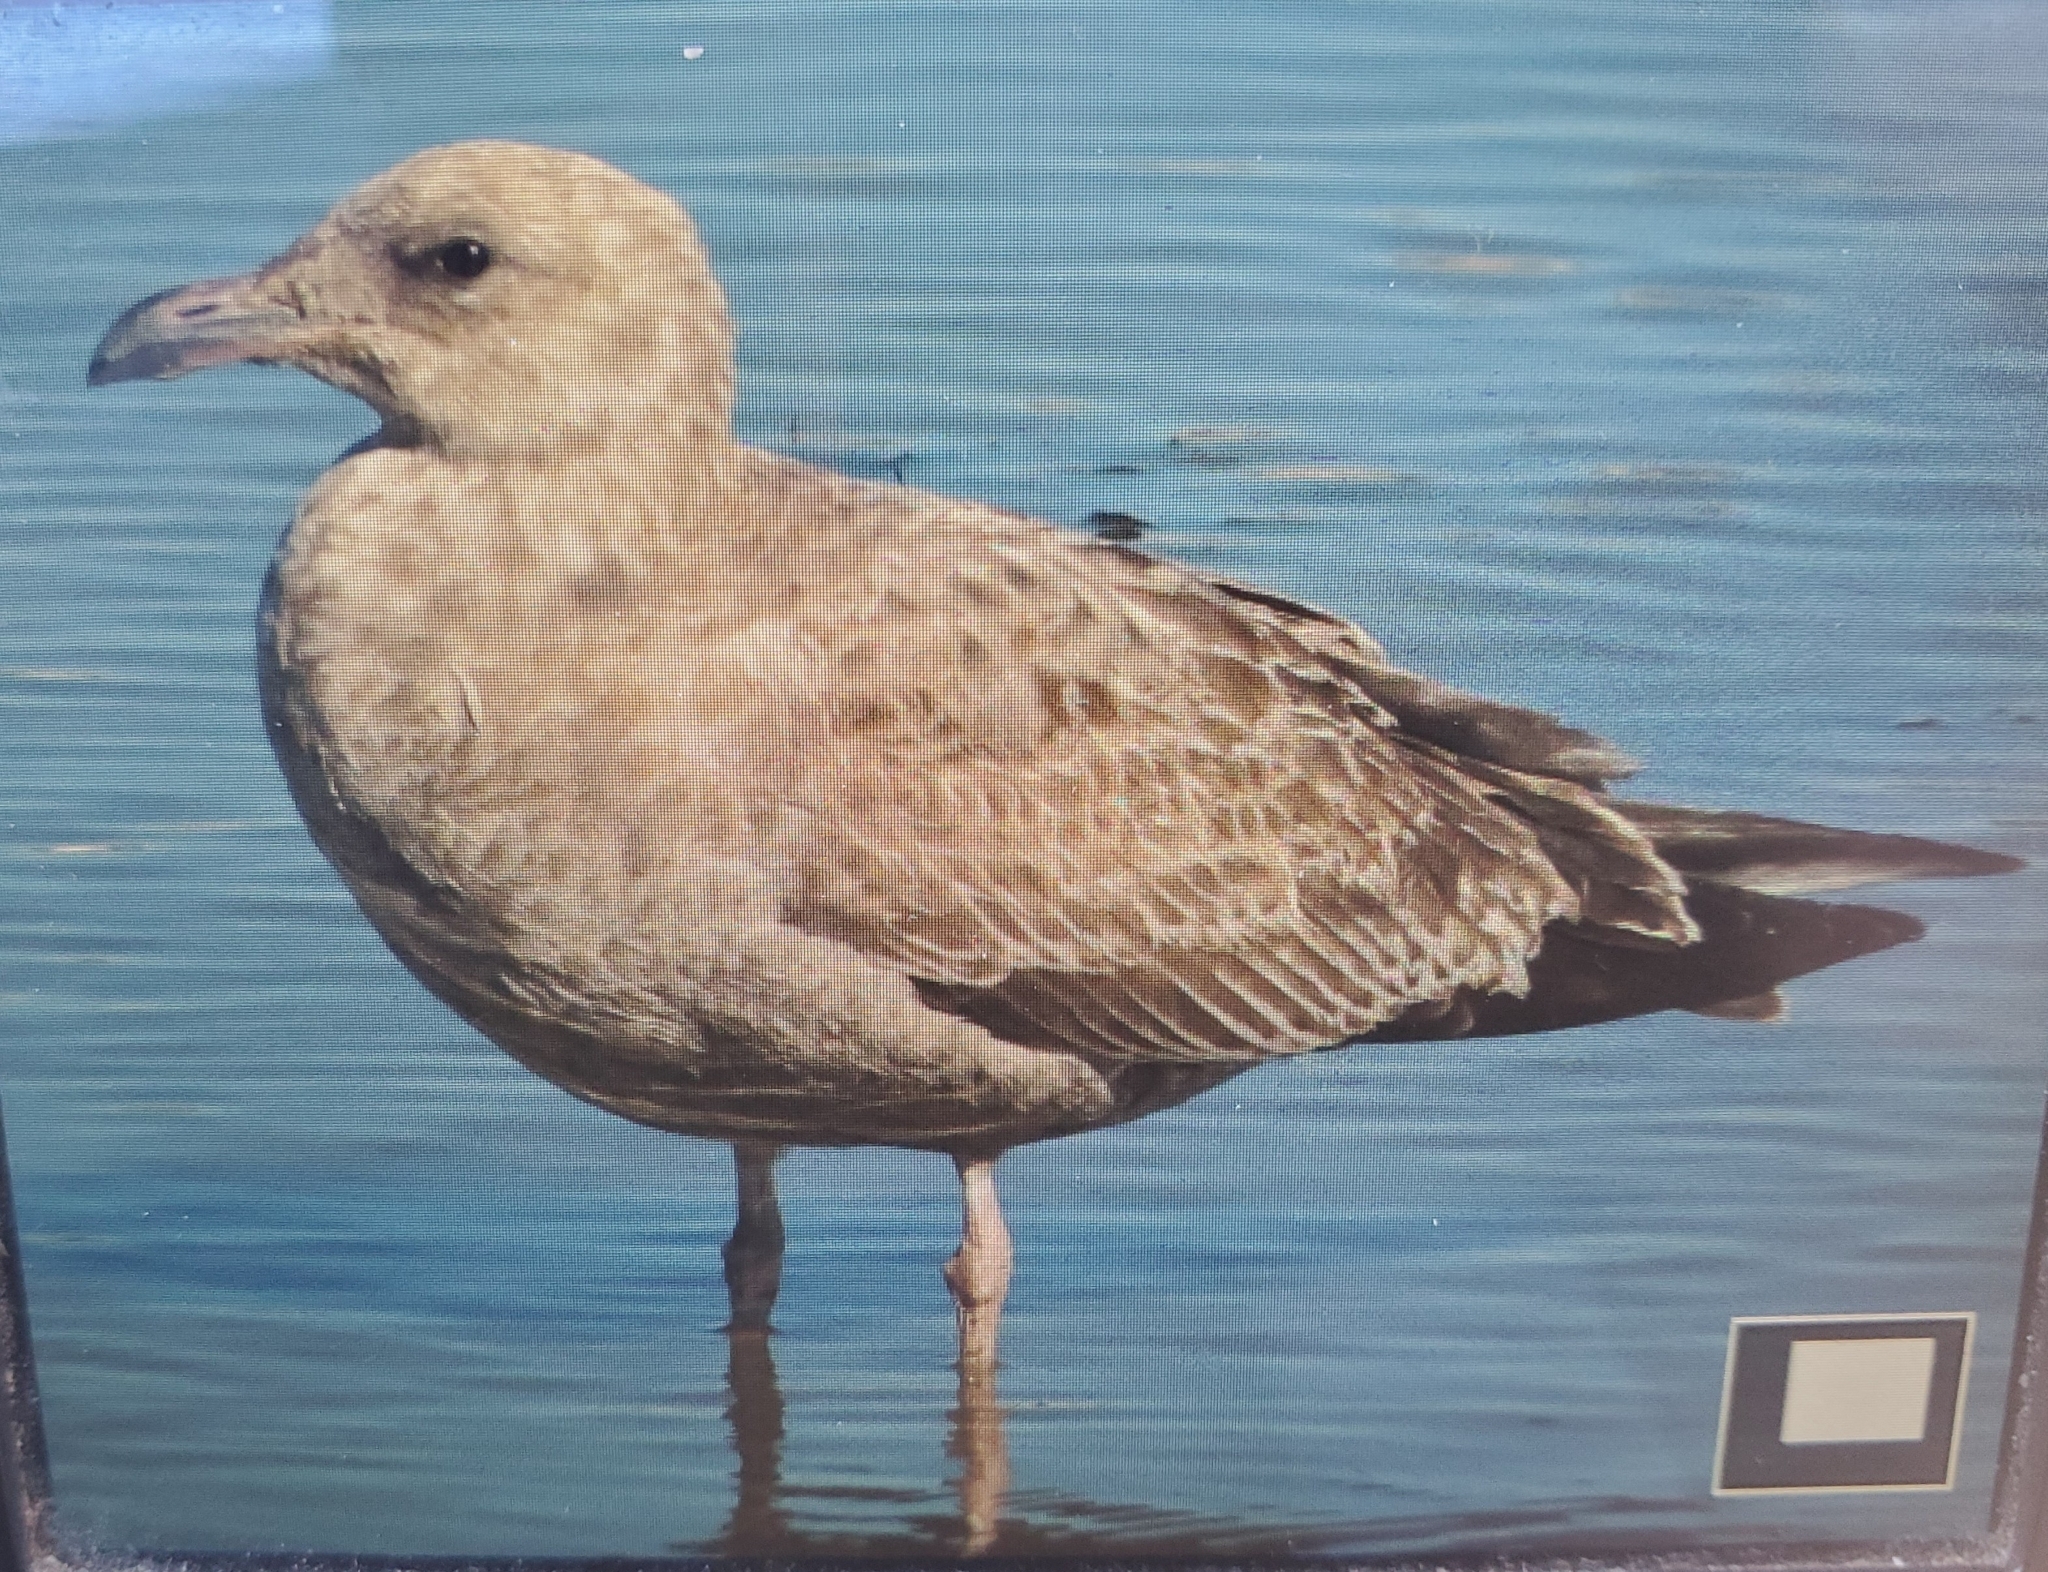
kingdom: Animalia
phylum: Chordata
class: Aves
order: Charadriiformes
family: Laridae
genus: Larus
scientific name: Larus smithsonianus
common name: American herring gull
